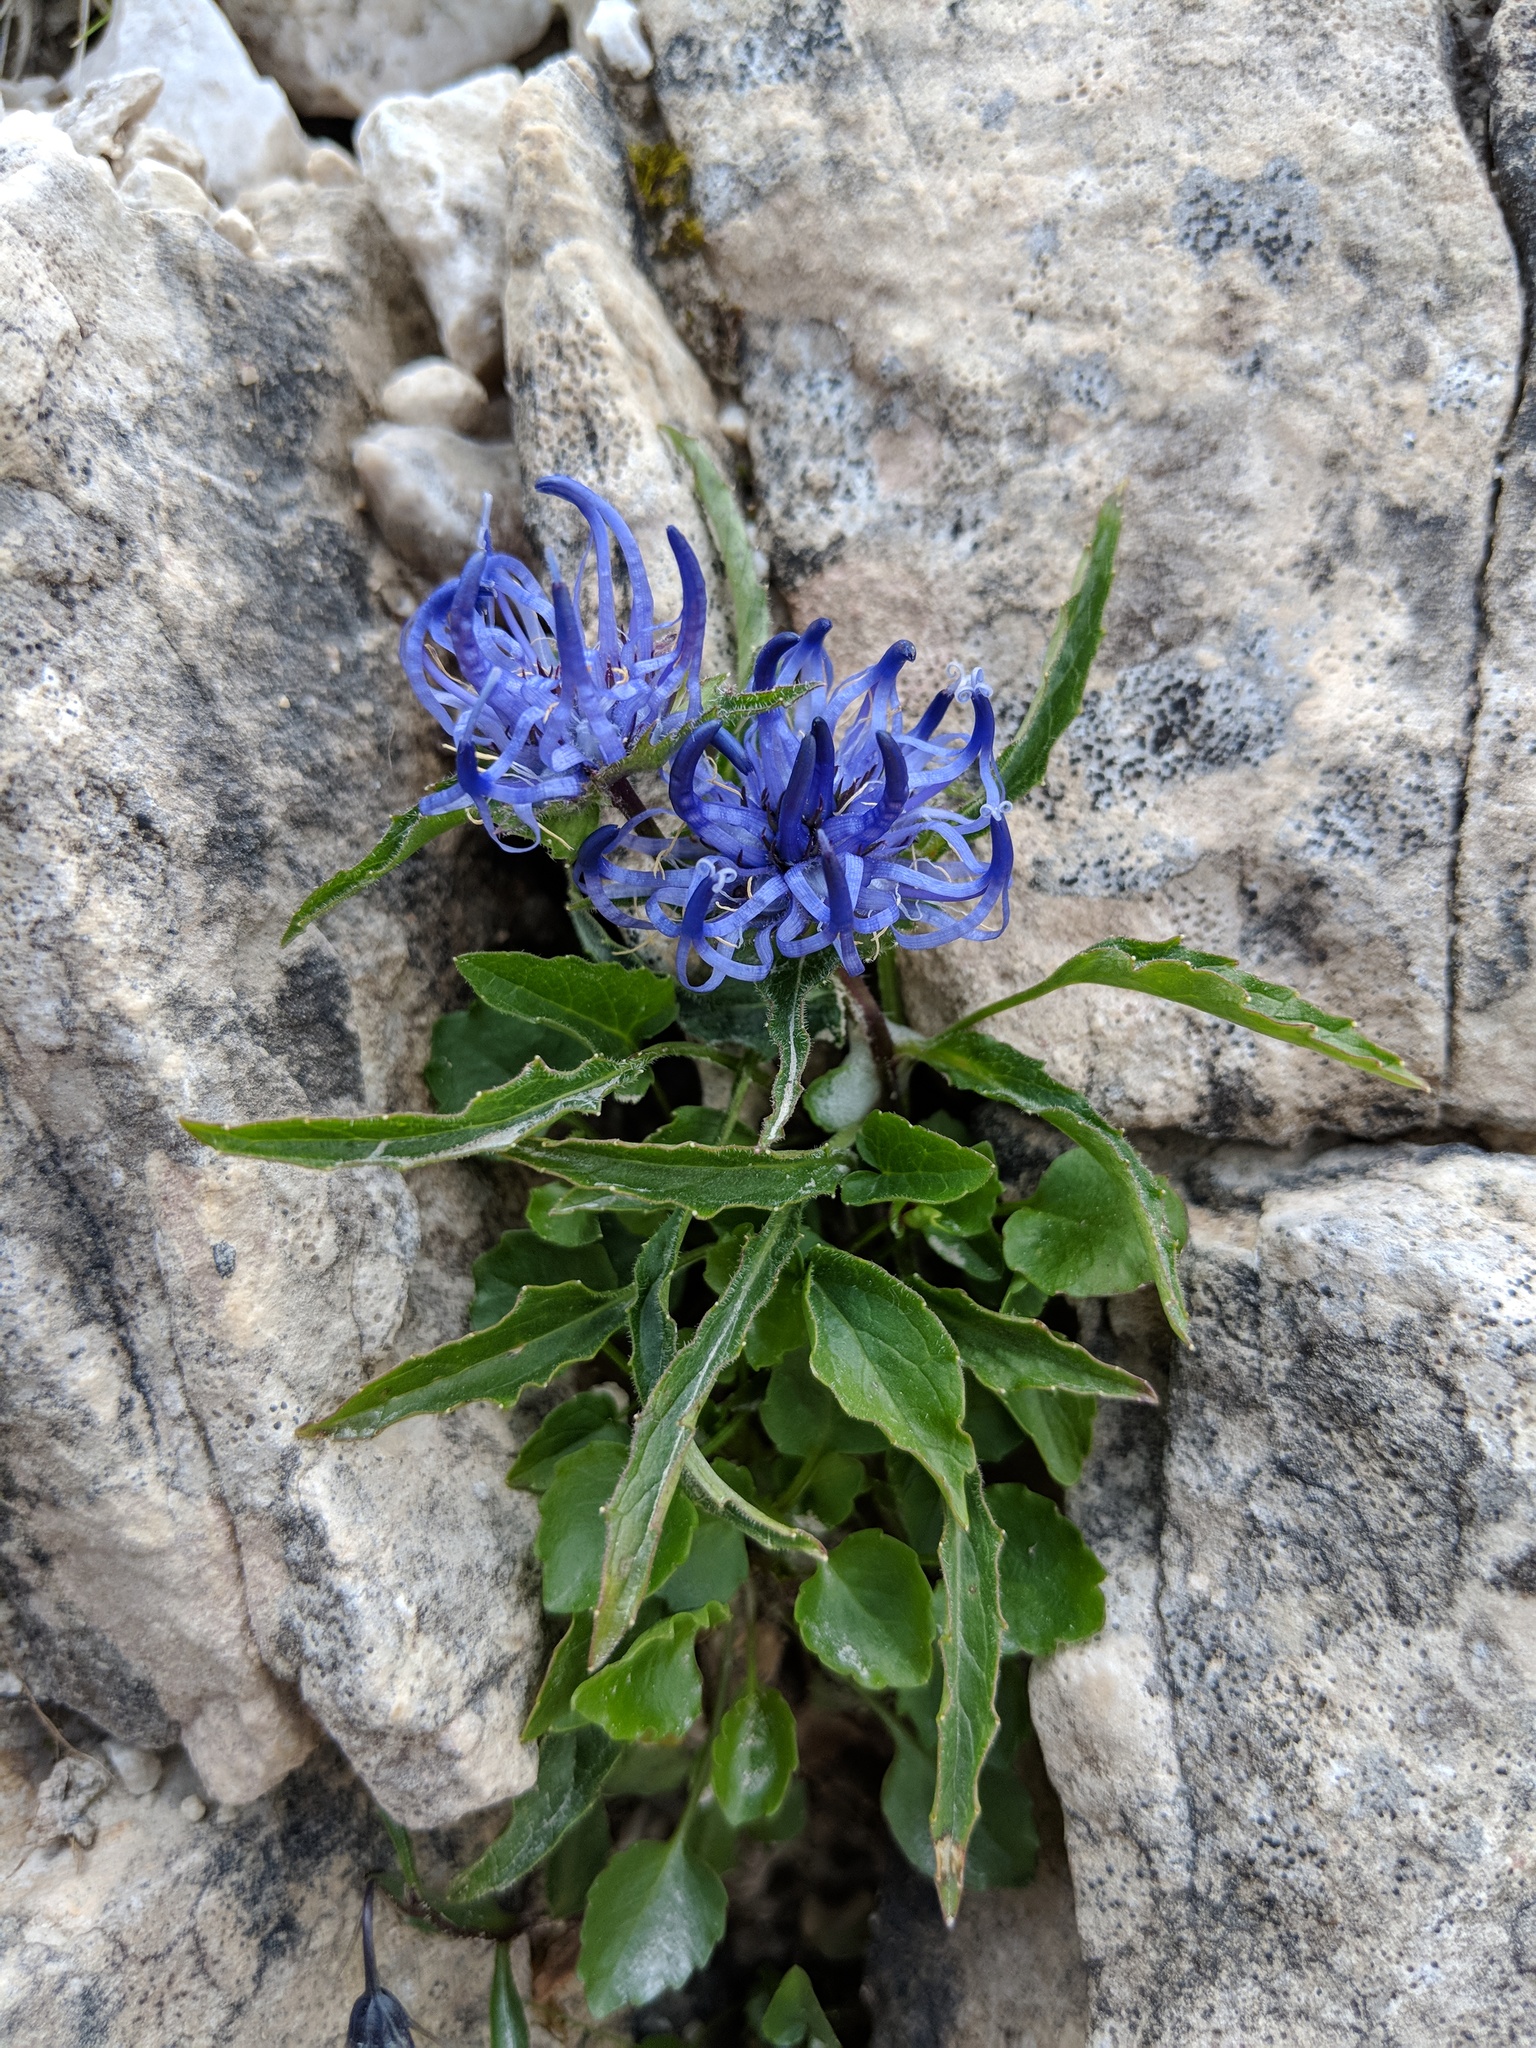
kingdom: Plantae
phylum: Tracheophyta
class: Magnoliopsida
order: Asterales
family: Campanulaceae
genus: Phyteuma
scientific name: Phyteuma sieberi
